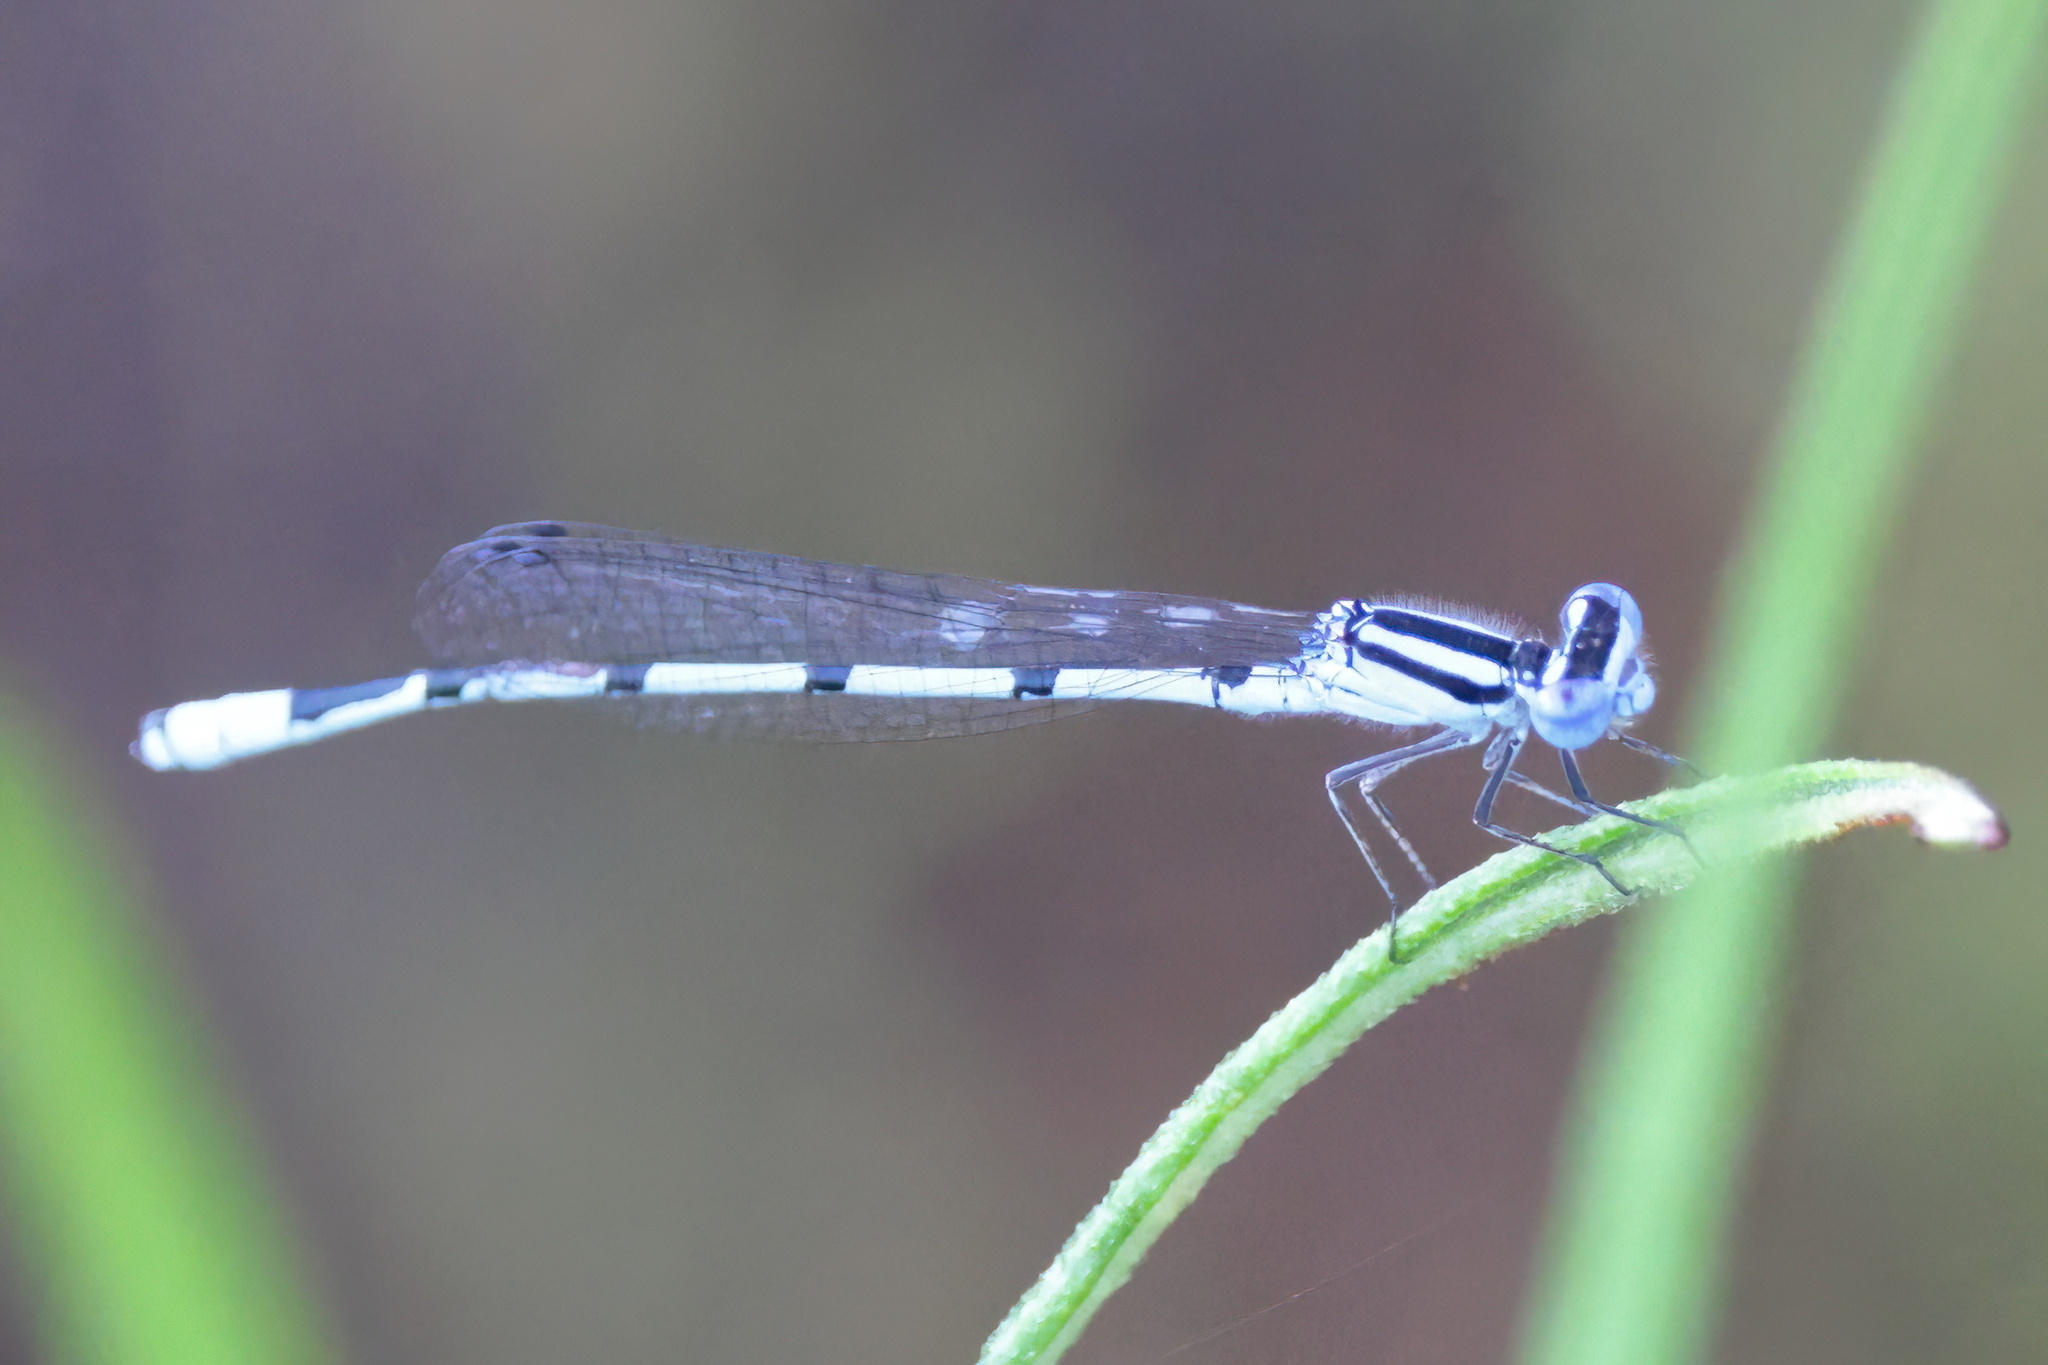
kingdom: Animalia
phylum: Arthropoda
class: Insecta
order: Odonata
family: Coenagrionidae
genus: Enallagma
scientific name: Enallagma doubledayi
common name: Atlantic bluet
